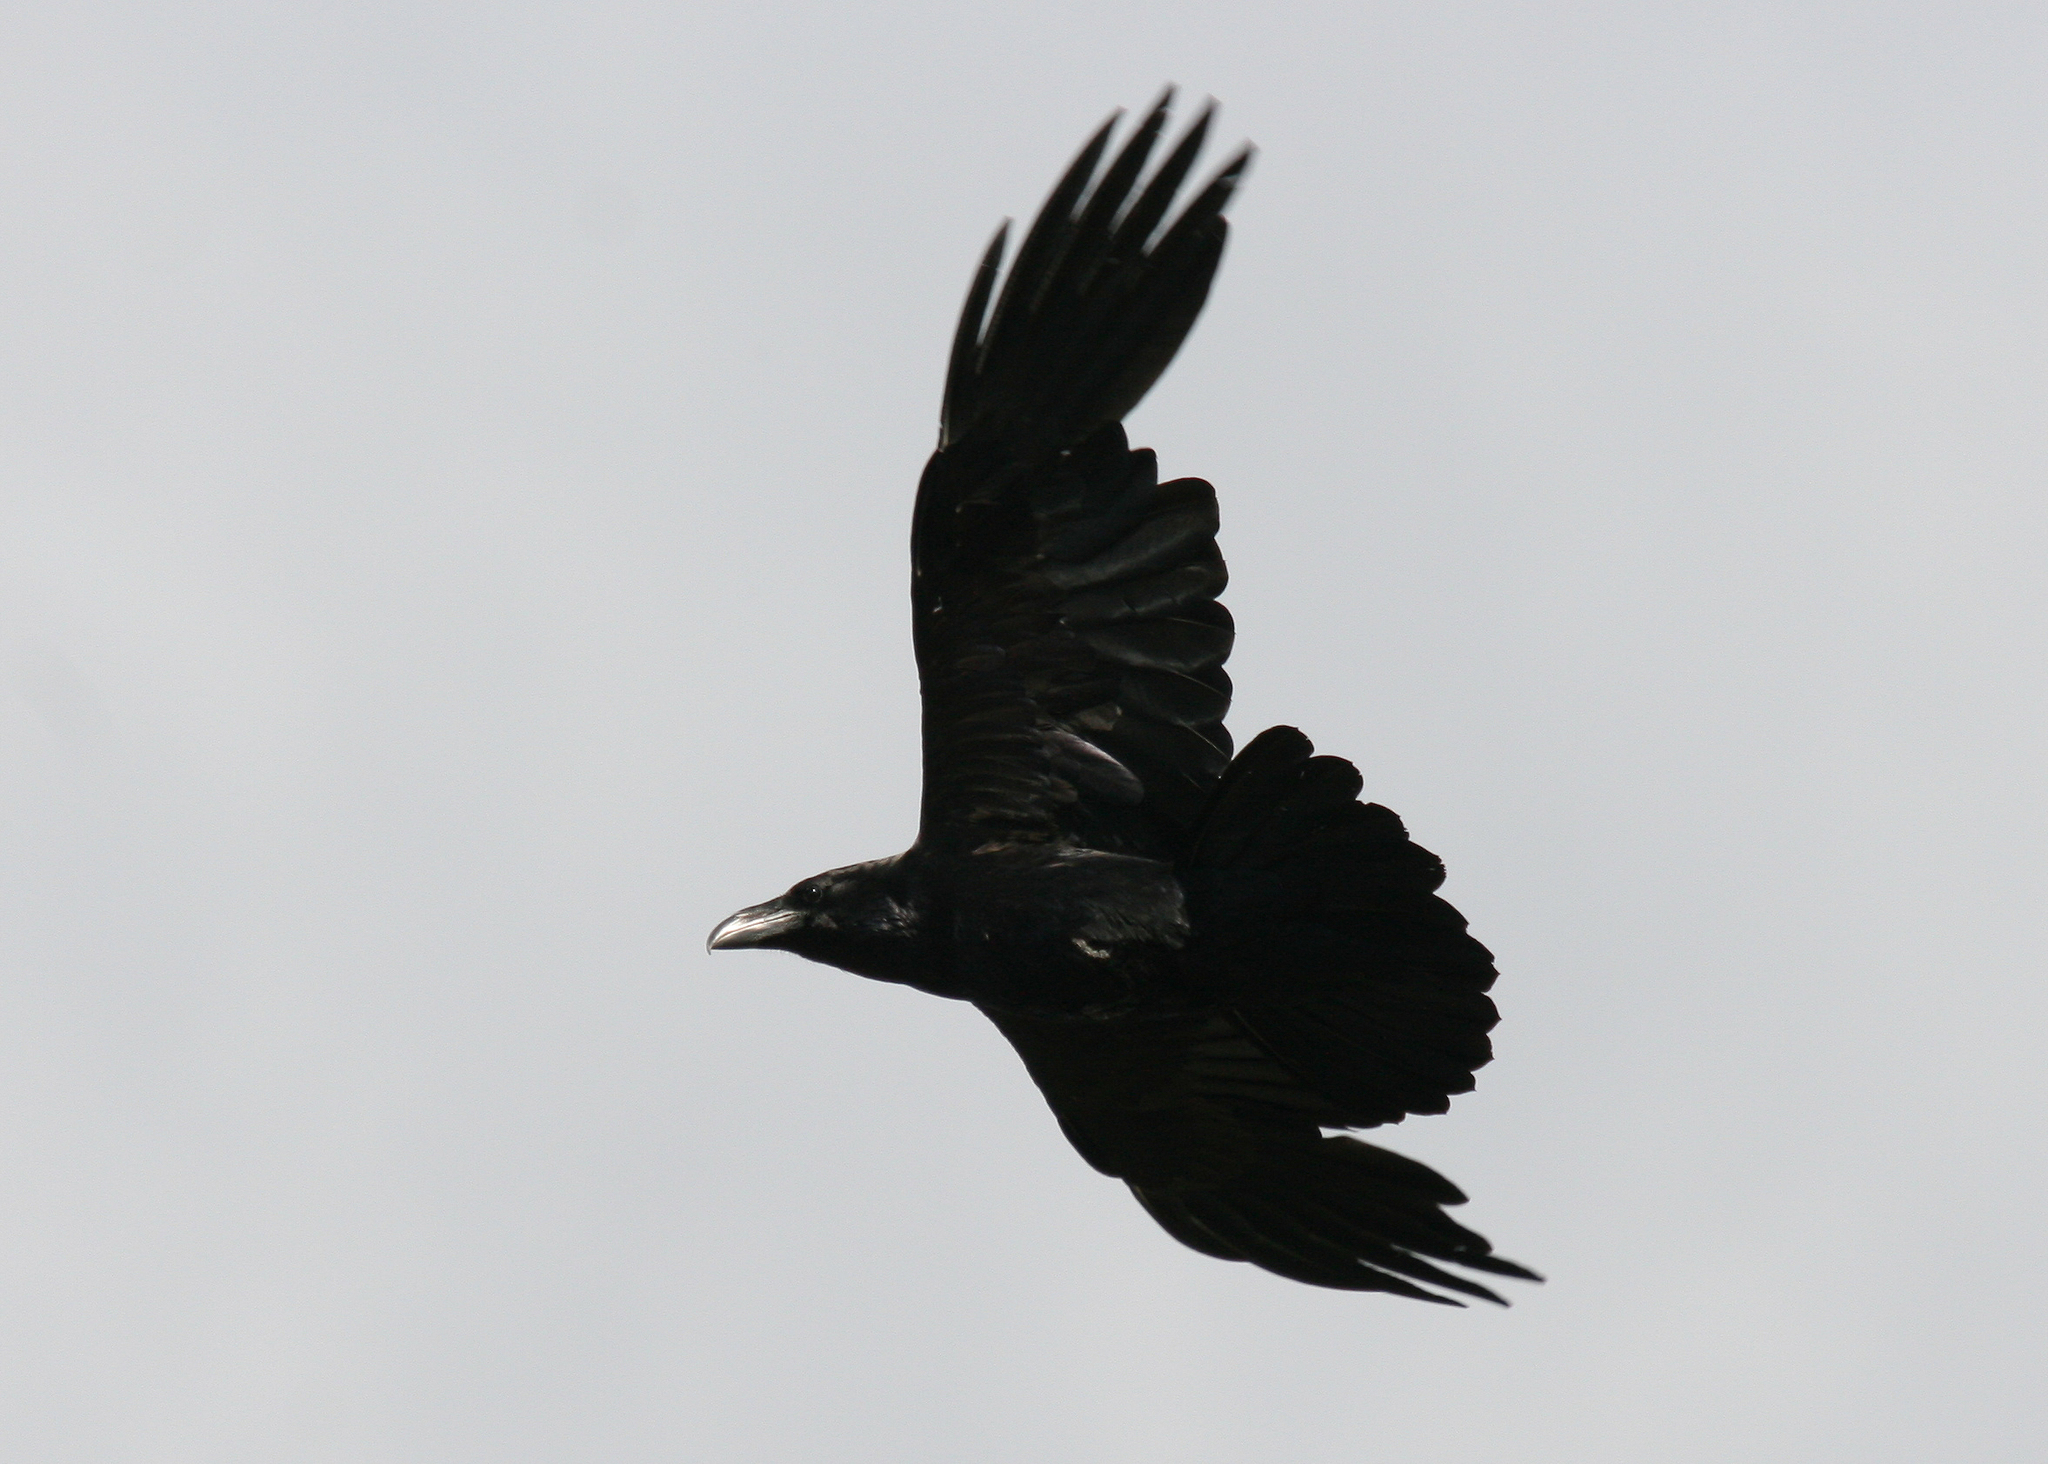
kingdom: Animalia
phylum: Chordata
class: Aves
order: Passeriformes
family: Corvidae
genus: Corvus
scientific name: Corvus corax
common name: Common raven
